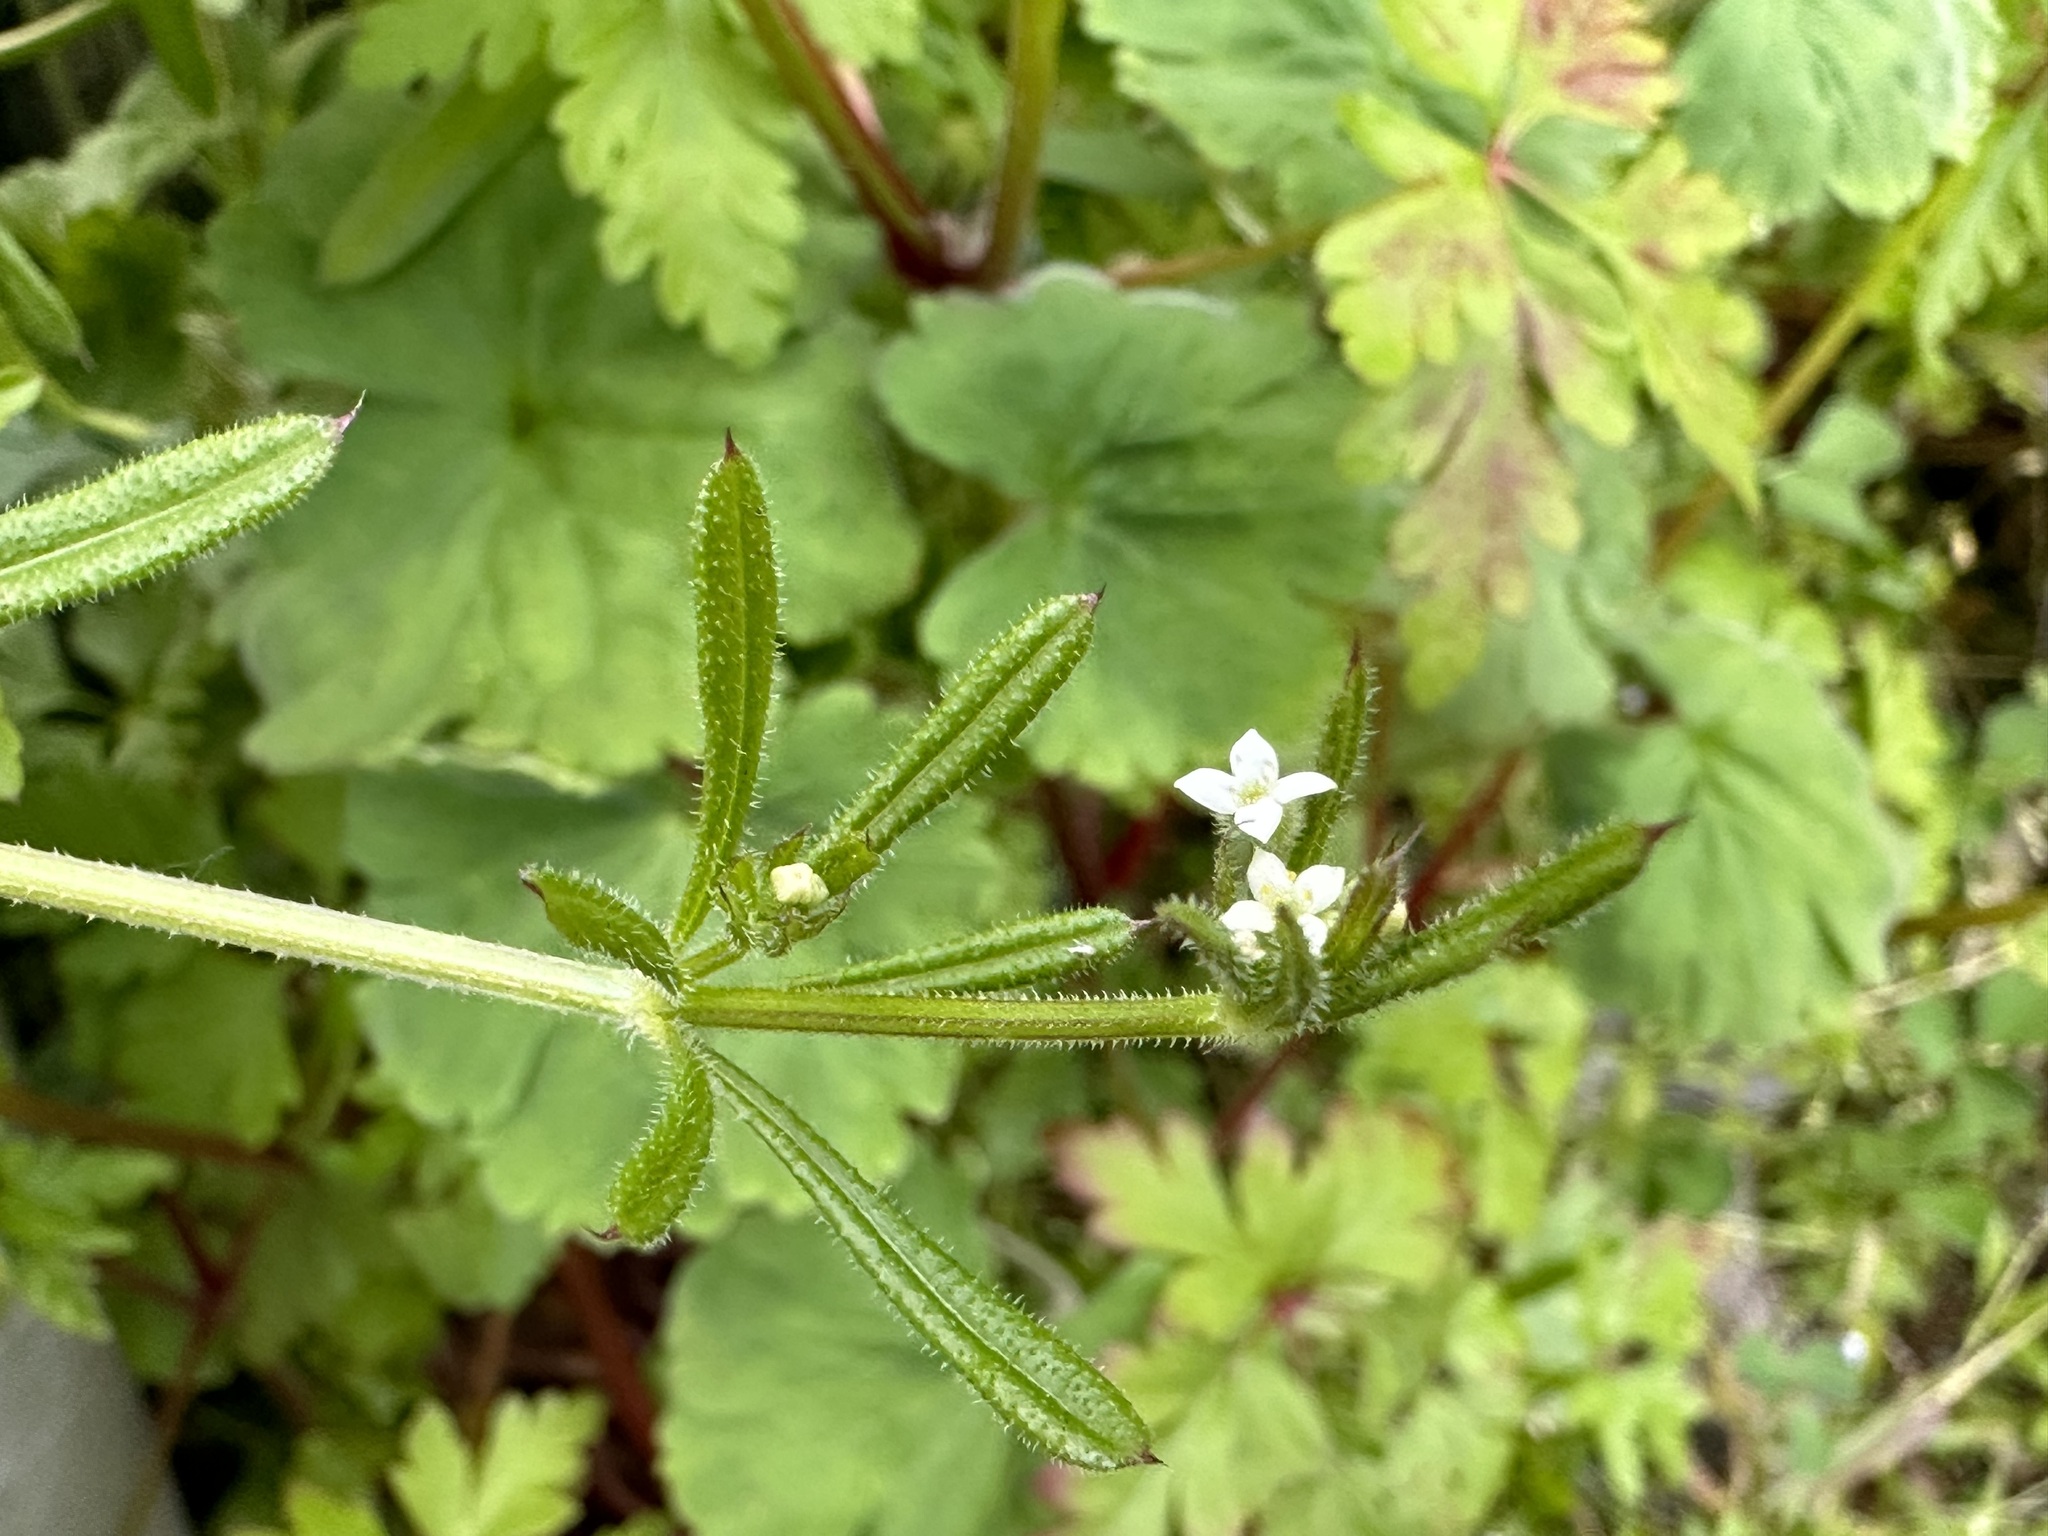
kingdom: Plantae
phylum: Tracheophyta
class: Magnoliopsida
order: Gentianales
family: Rubiaceae
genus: Galium
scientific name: Galium aparine
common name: Cleavers
